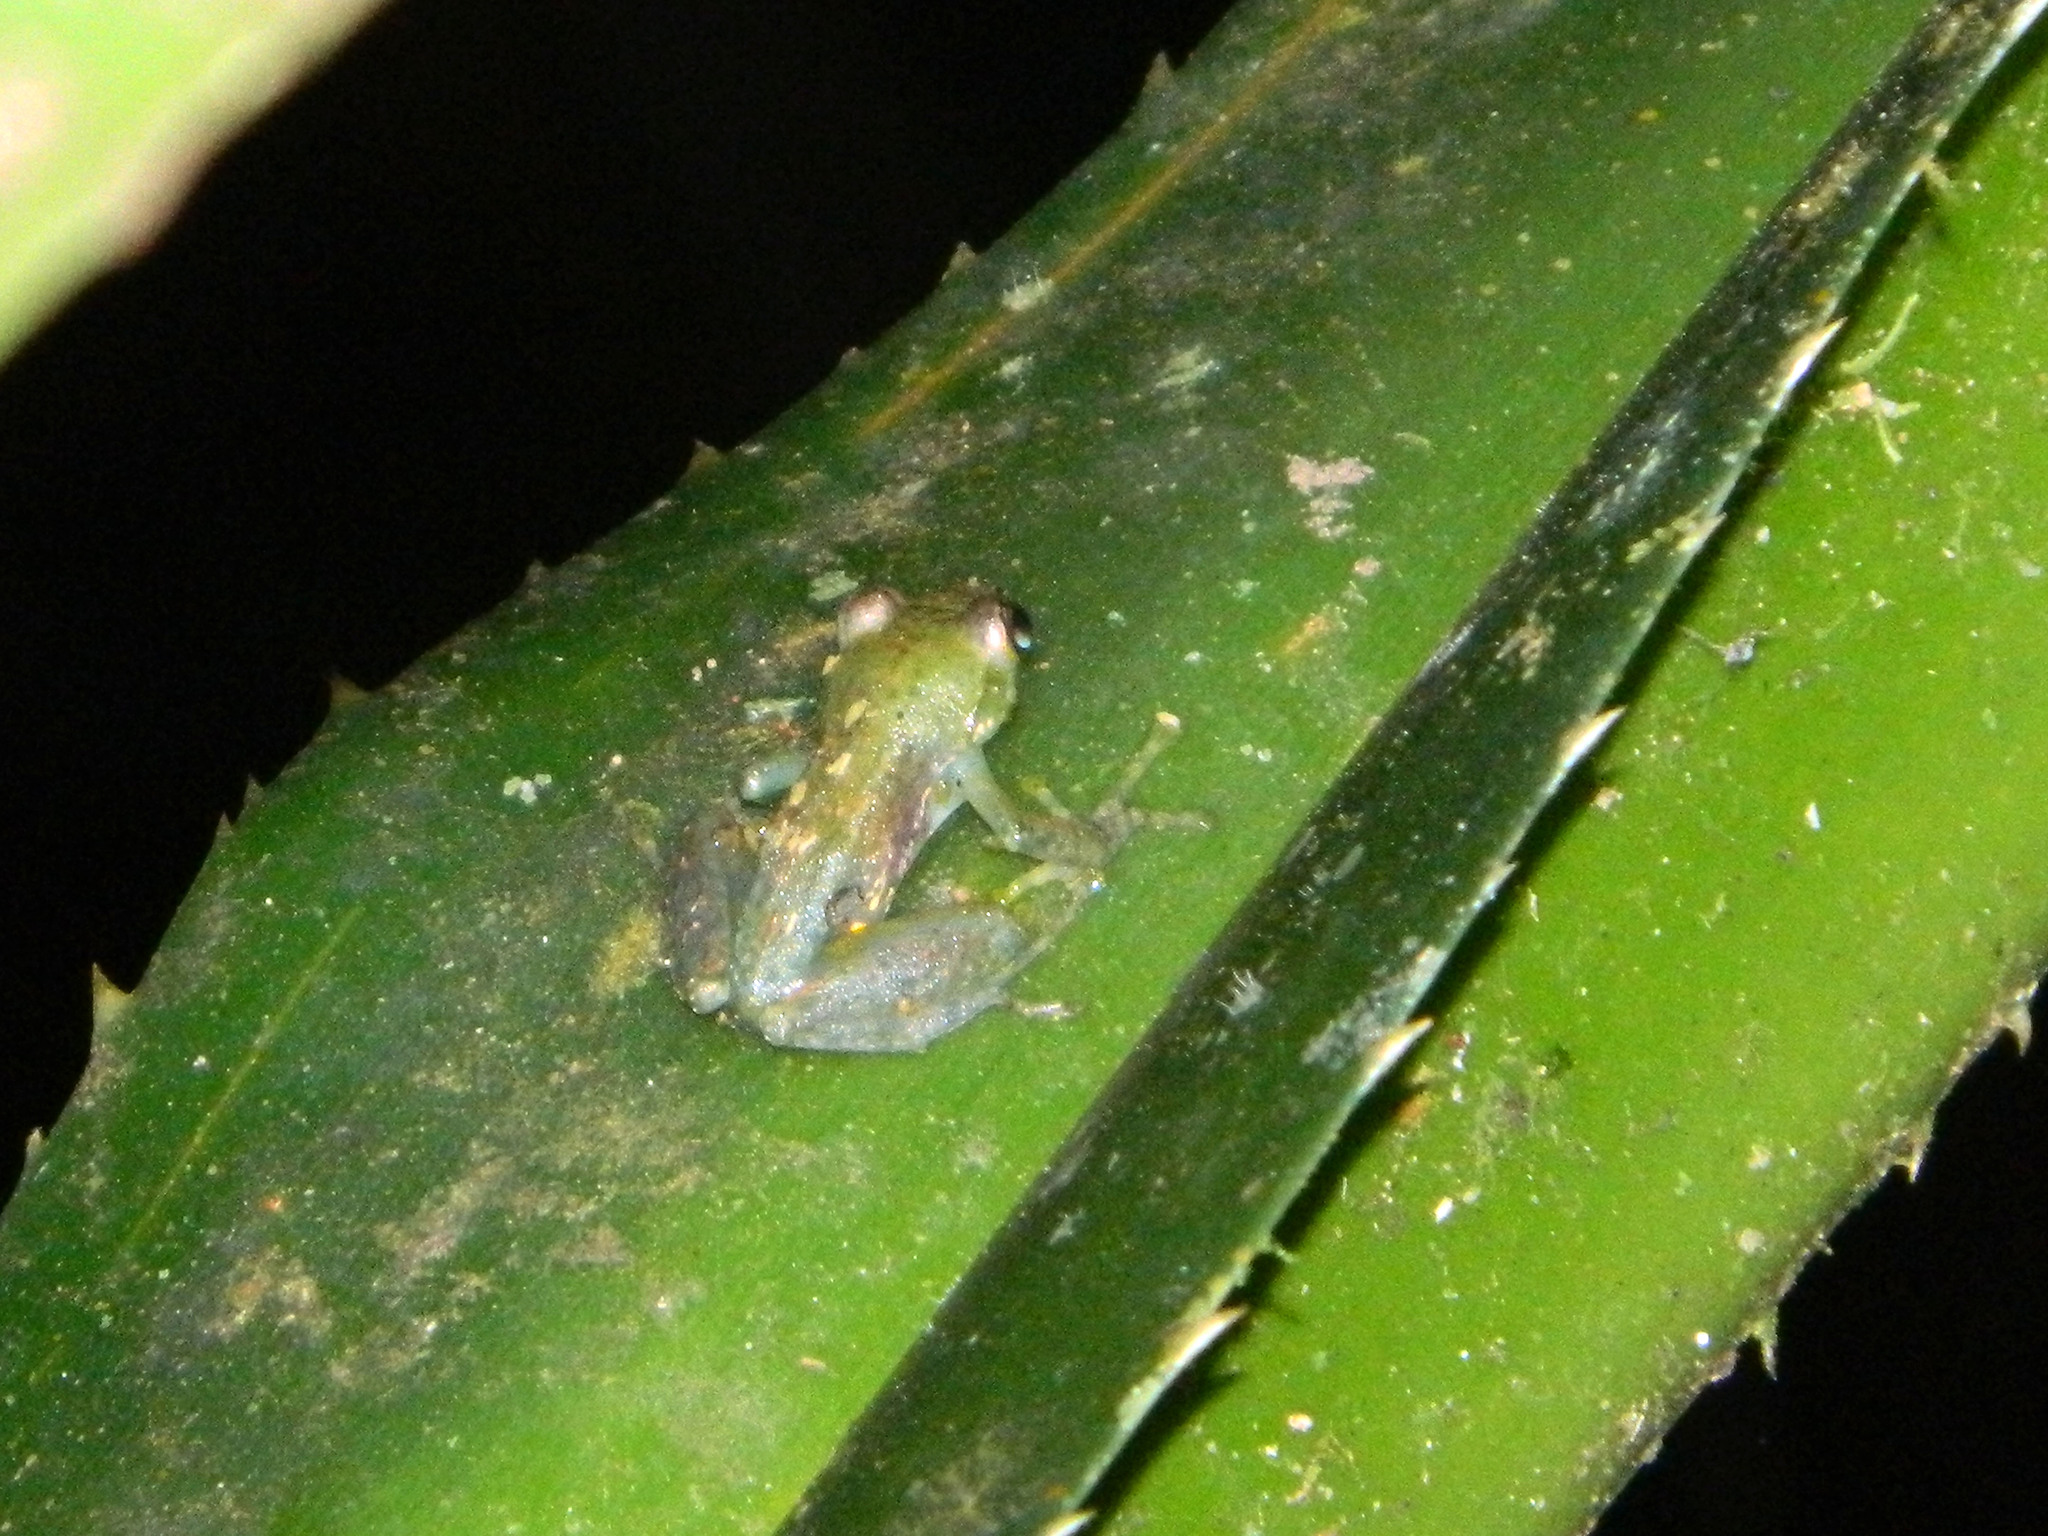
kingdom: Animalia
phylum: Chordata
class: Amphibia
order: Anura
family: Mantellidae
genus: Guibemantis
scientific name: Guibemantis liber
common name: Free madagascar frog
